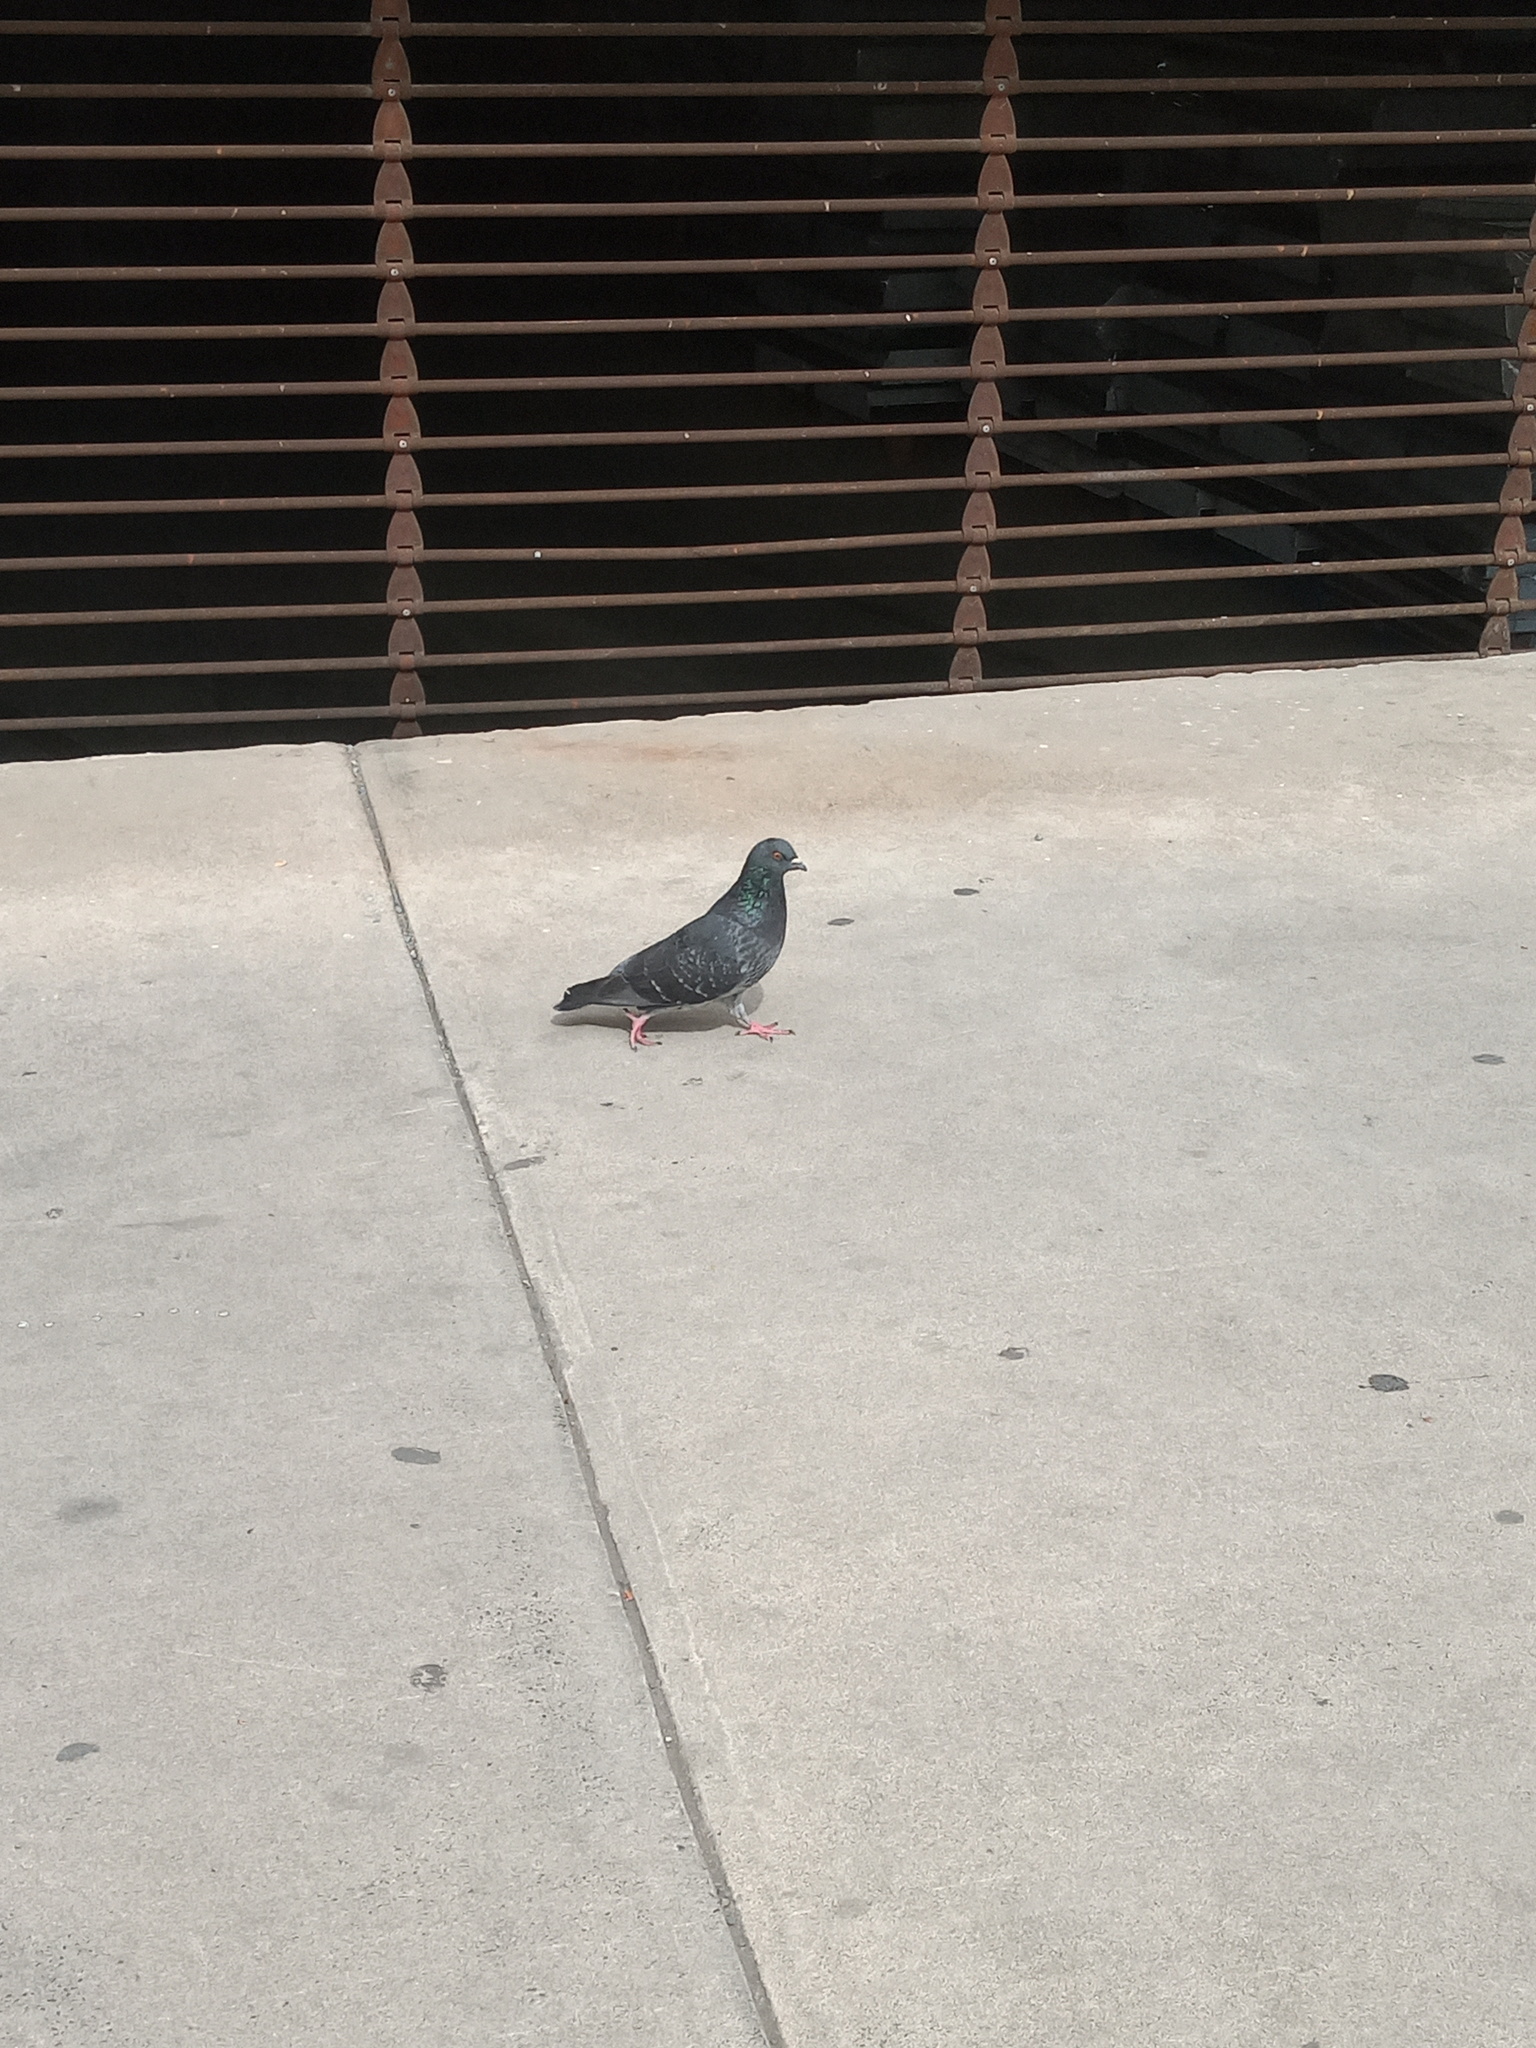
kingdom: Animalia
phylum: Chordata
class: Aves
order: Columbiformes
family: Columbidae
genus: Columba
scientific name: Columba livia
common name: Rock pigeon
